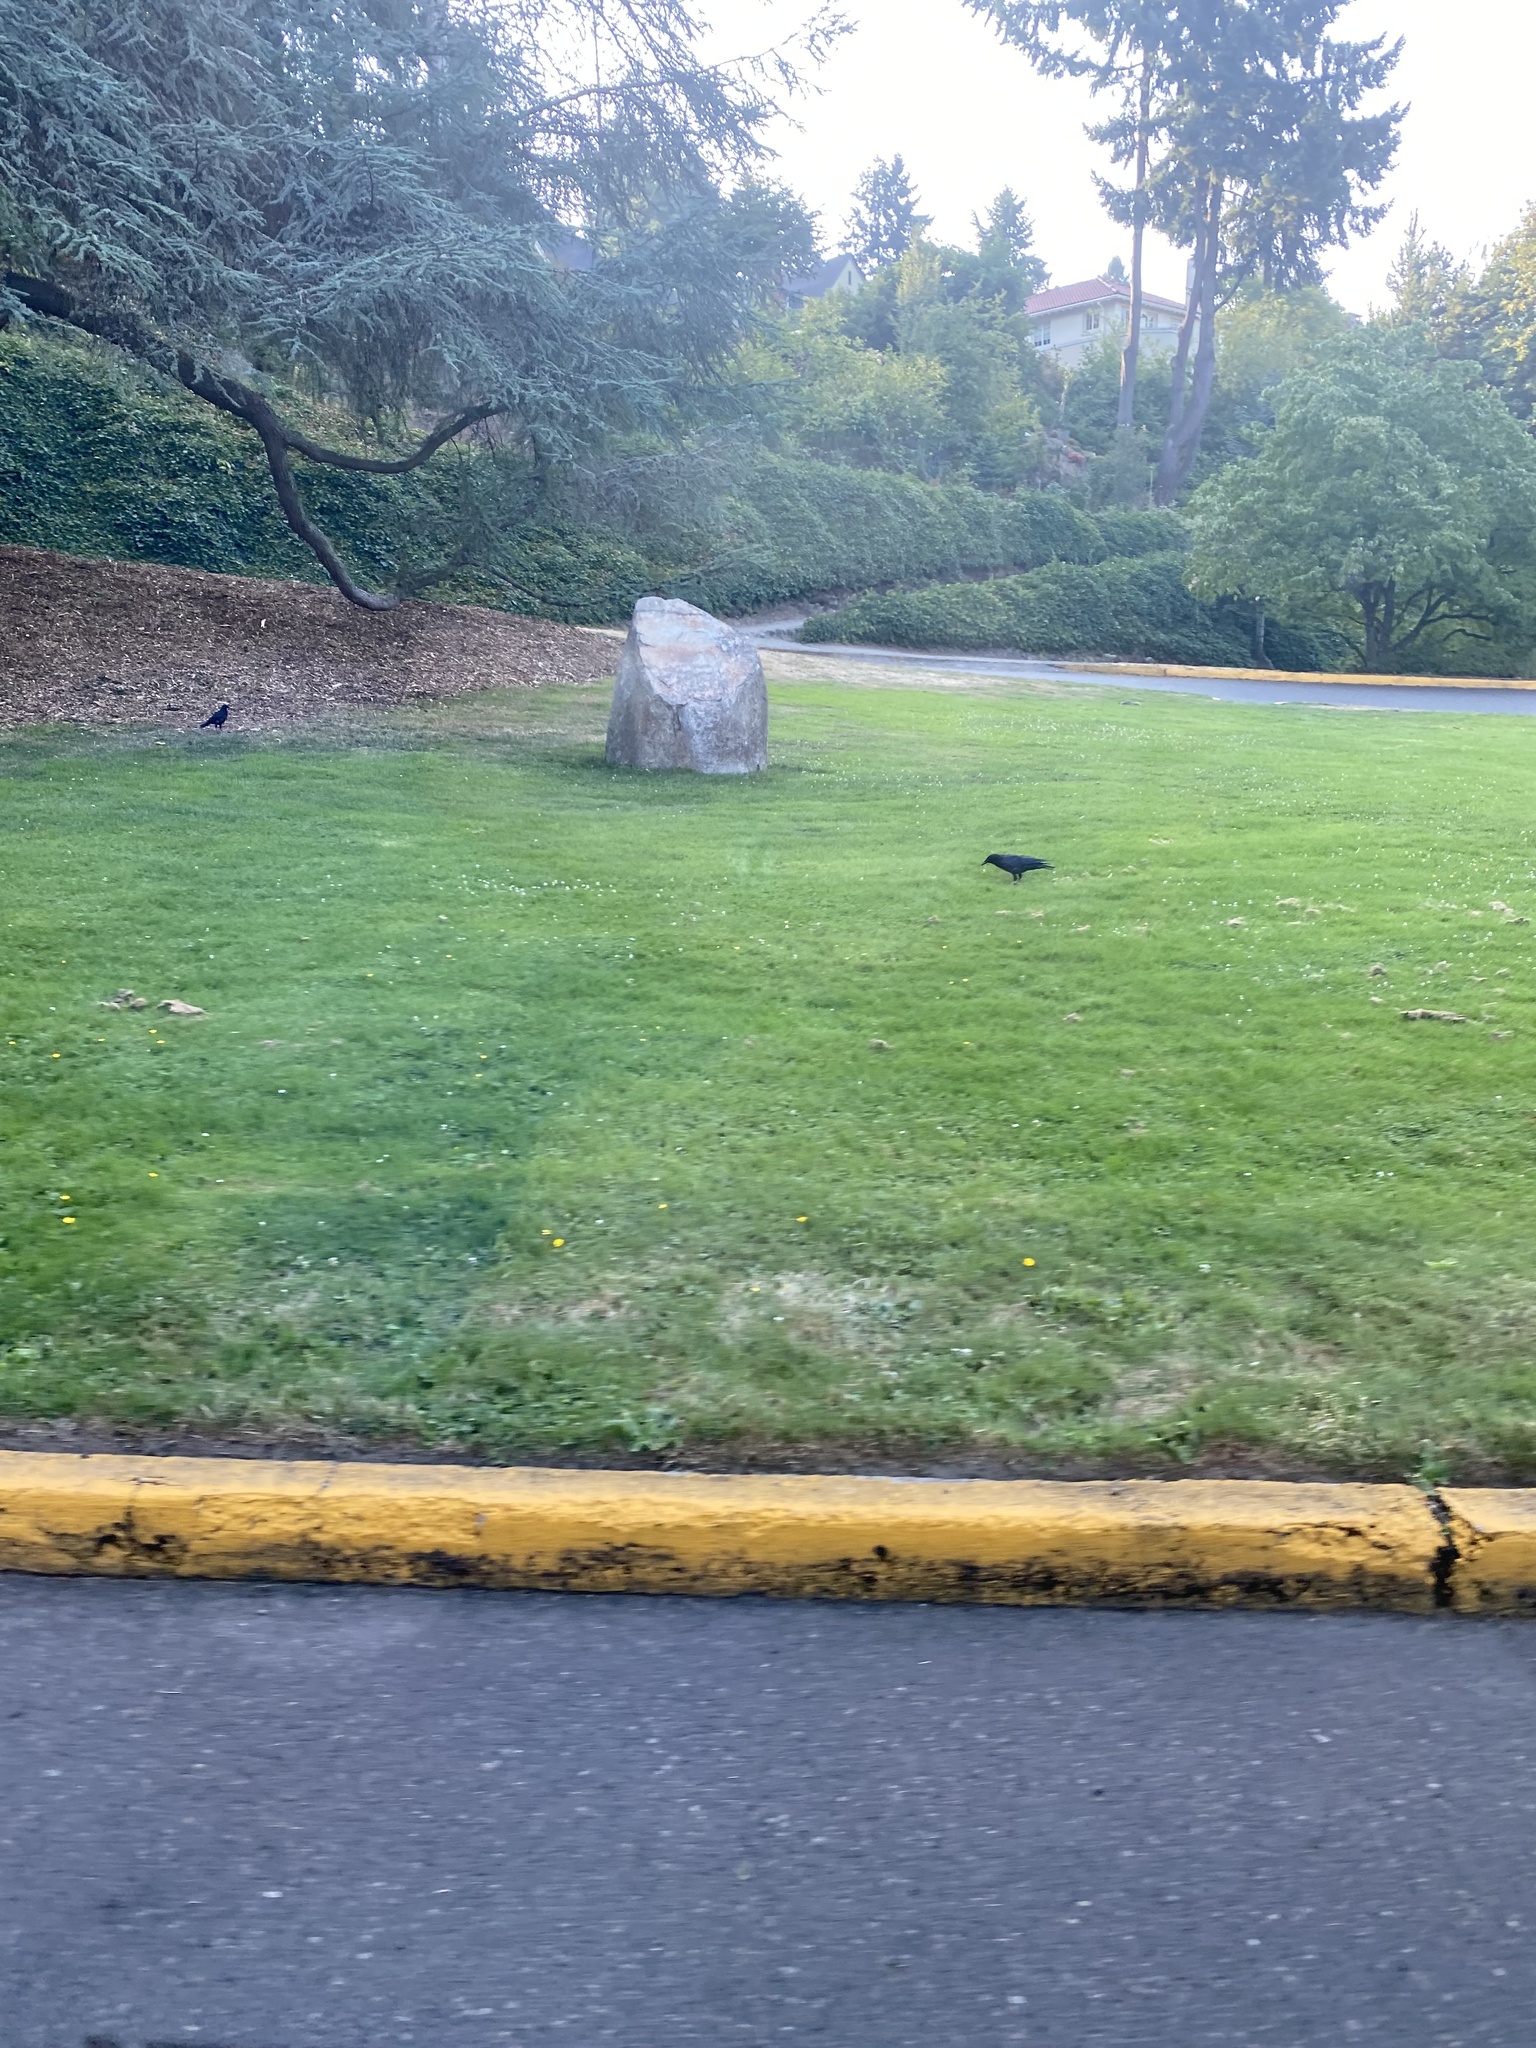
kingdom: Animalia
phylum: Chordata
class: Aves
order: Passeriformes
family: Corvidae
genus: Corvus
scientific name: Corvus brachyrhynchos
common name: American crow
